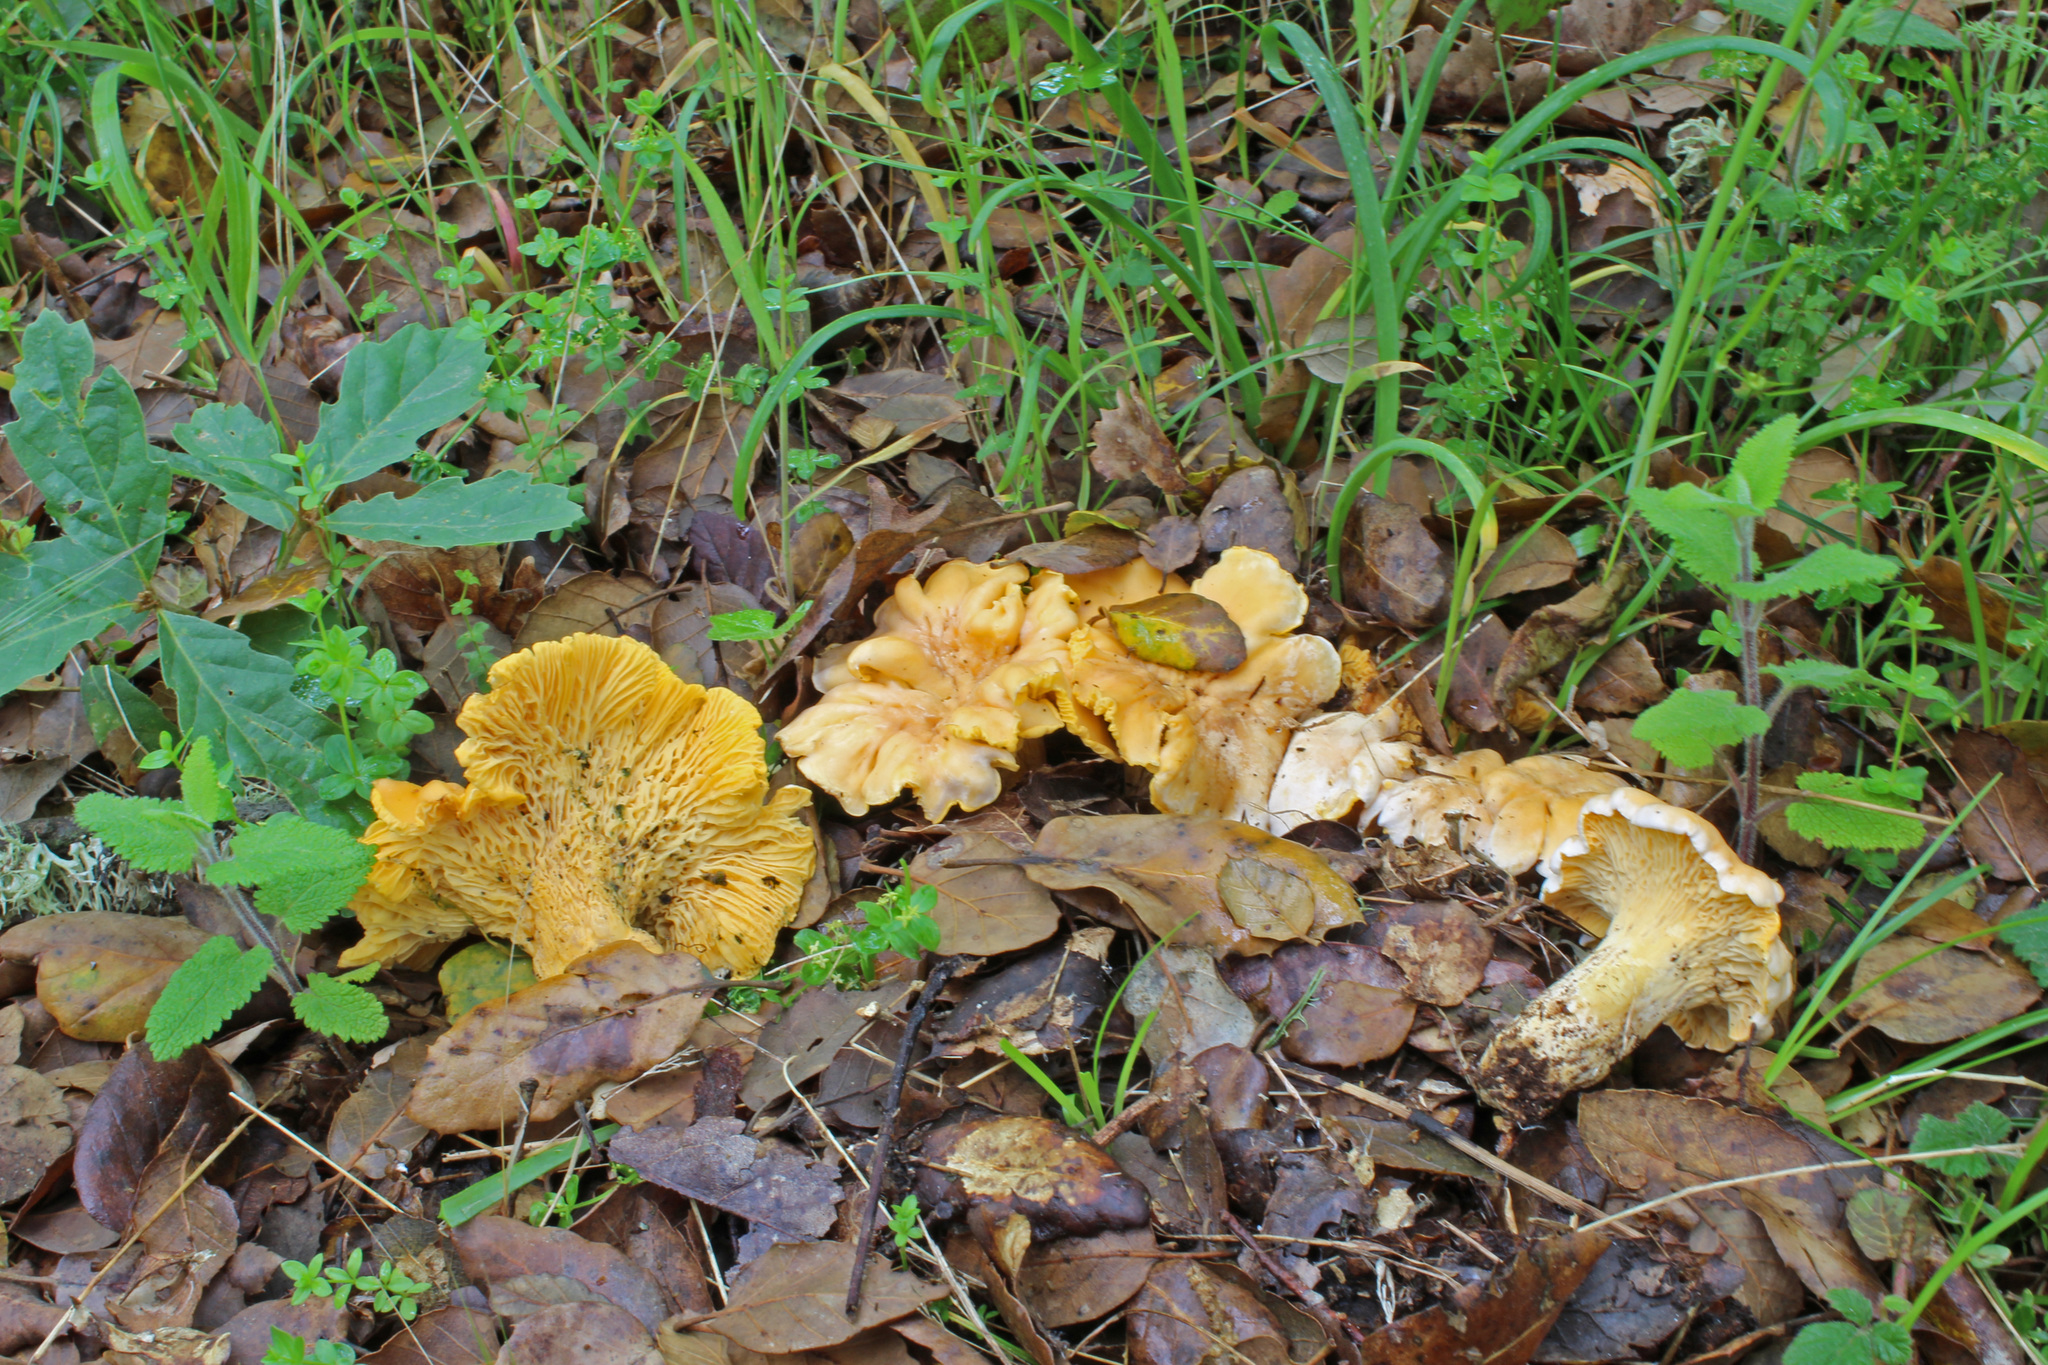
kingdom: Fungi
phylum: Basidiomycota
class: Agaricomycetes
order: Cantharellales
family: Hydnaceae
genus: Cantharellus
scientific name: Cantharellus pallens
